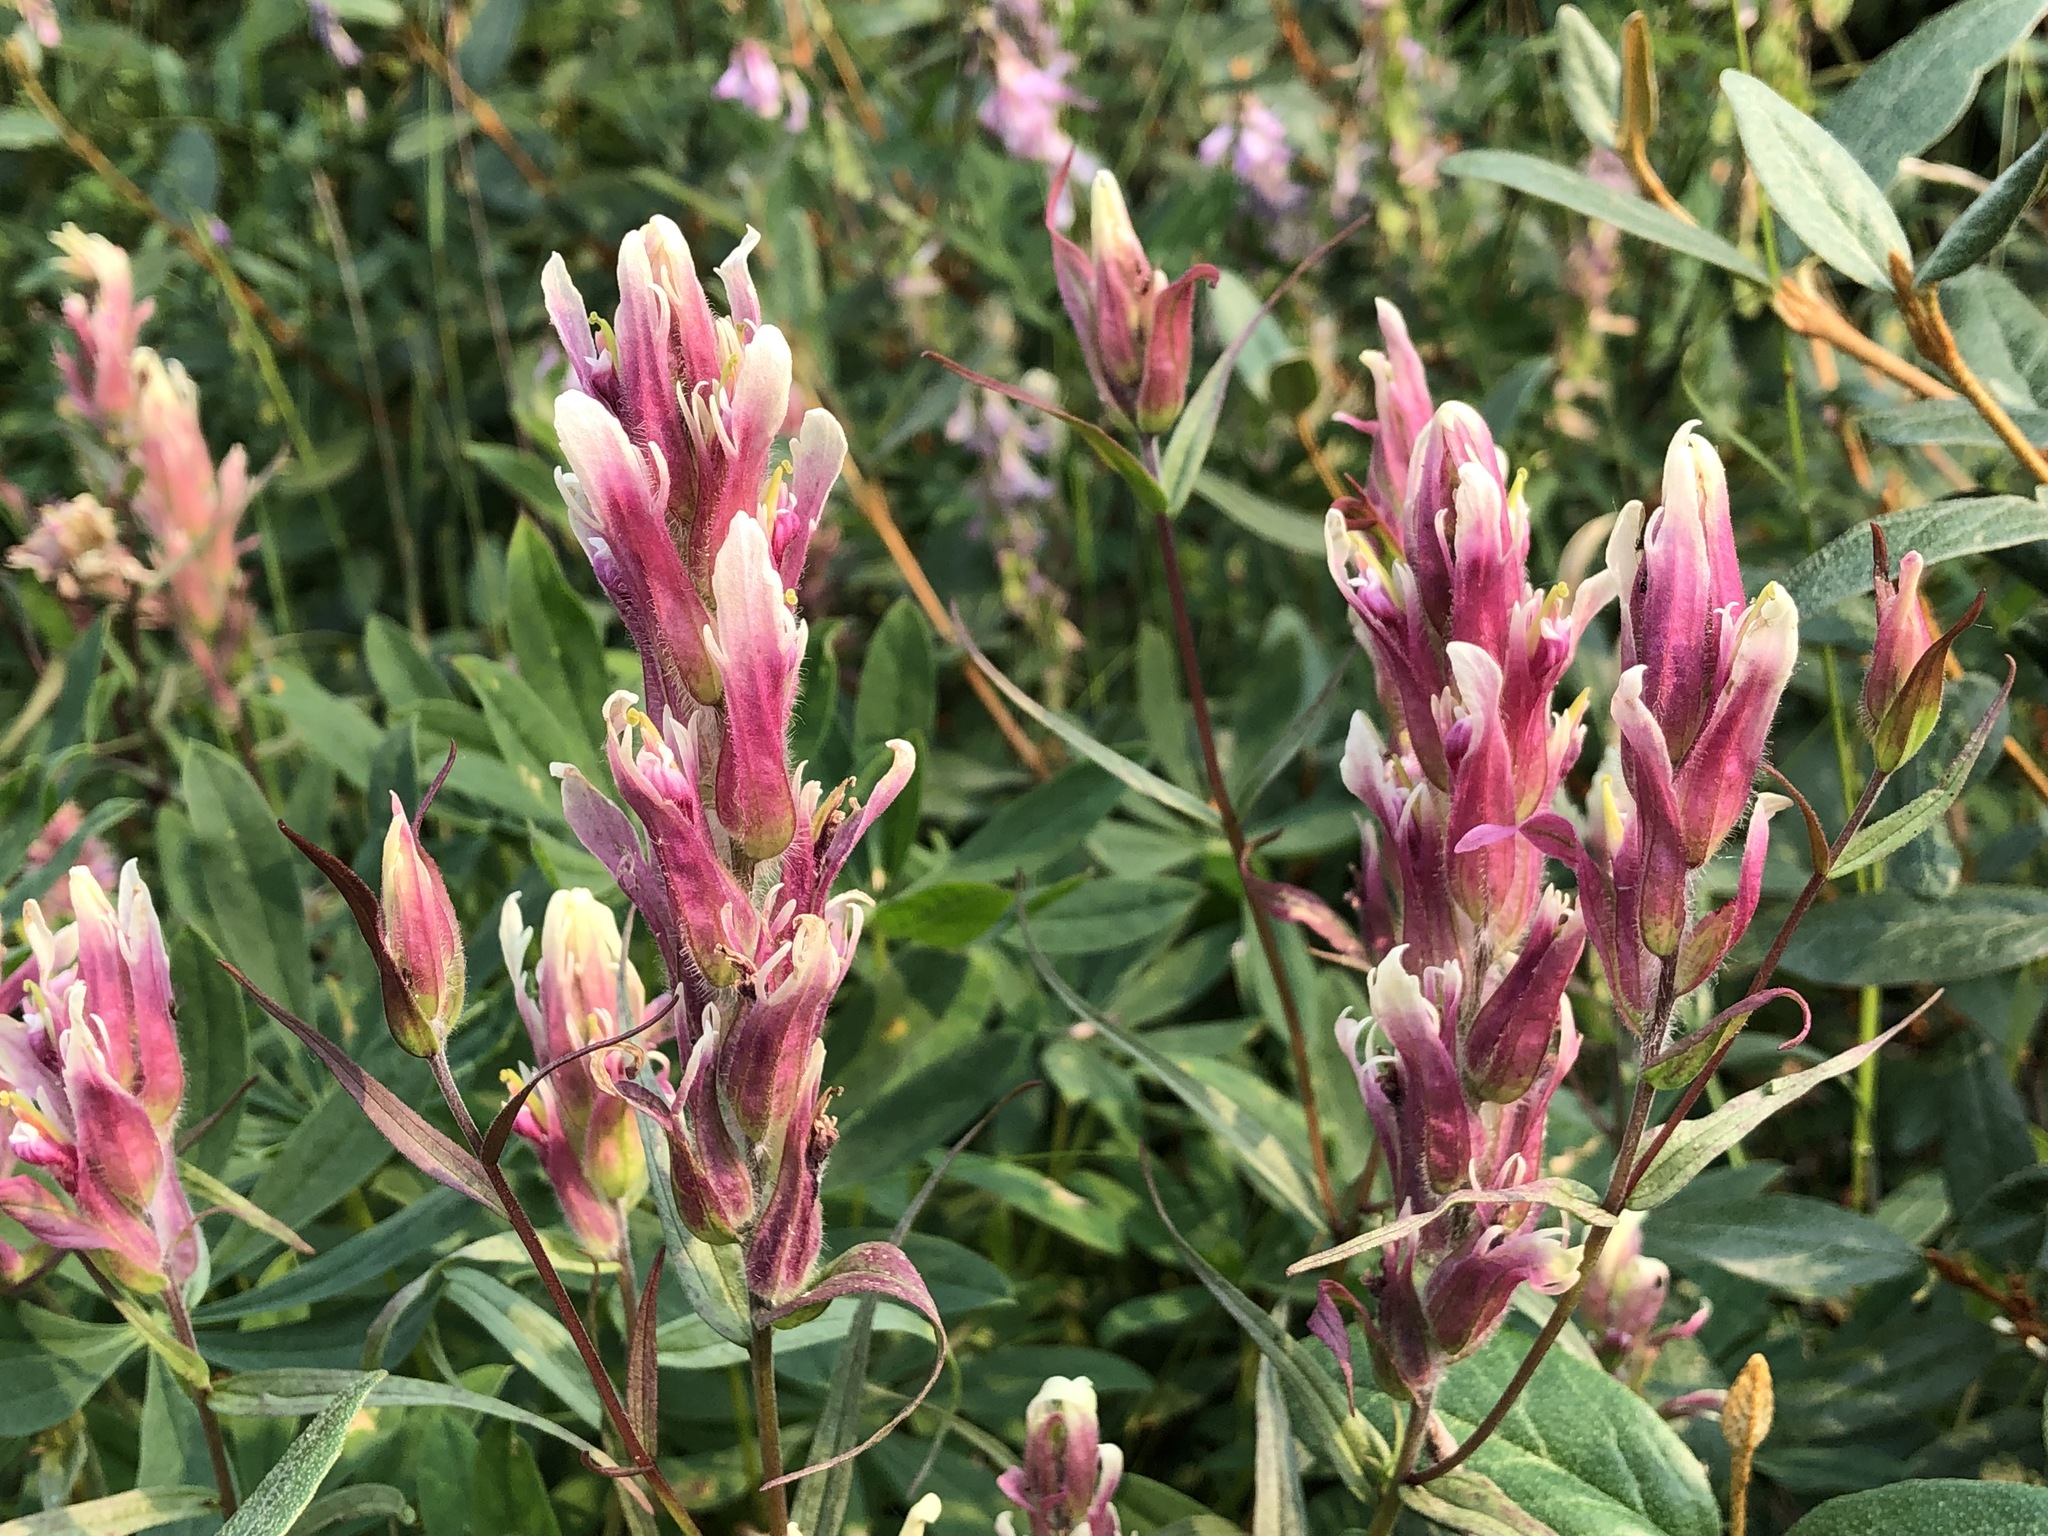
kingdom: Plantae
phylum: Tracheophyta
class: Magnoliopsida
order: Lamiales
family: Orobanchaceae
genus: Castilleja
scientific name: Castilleja raupii
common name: Raup's paintbrush
